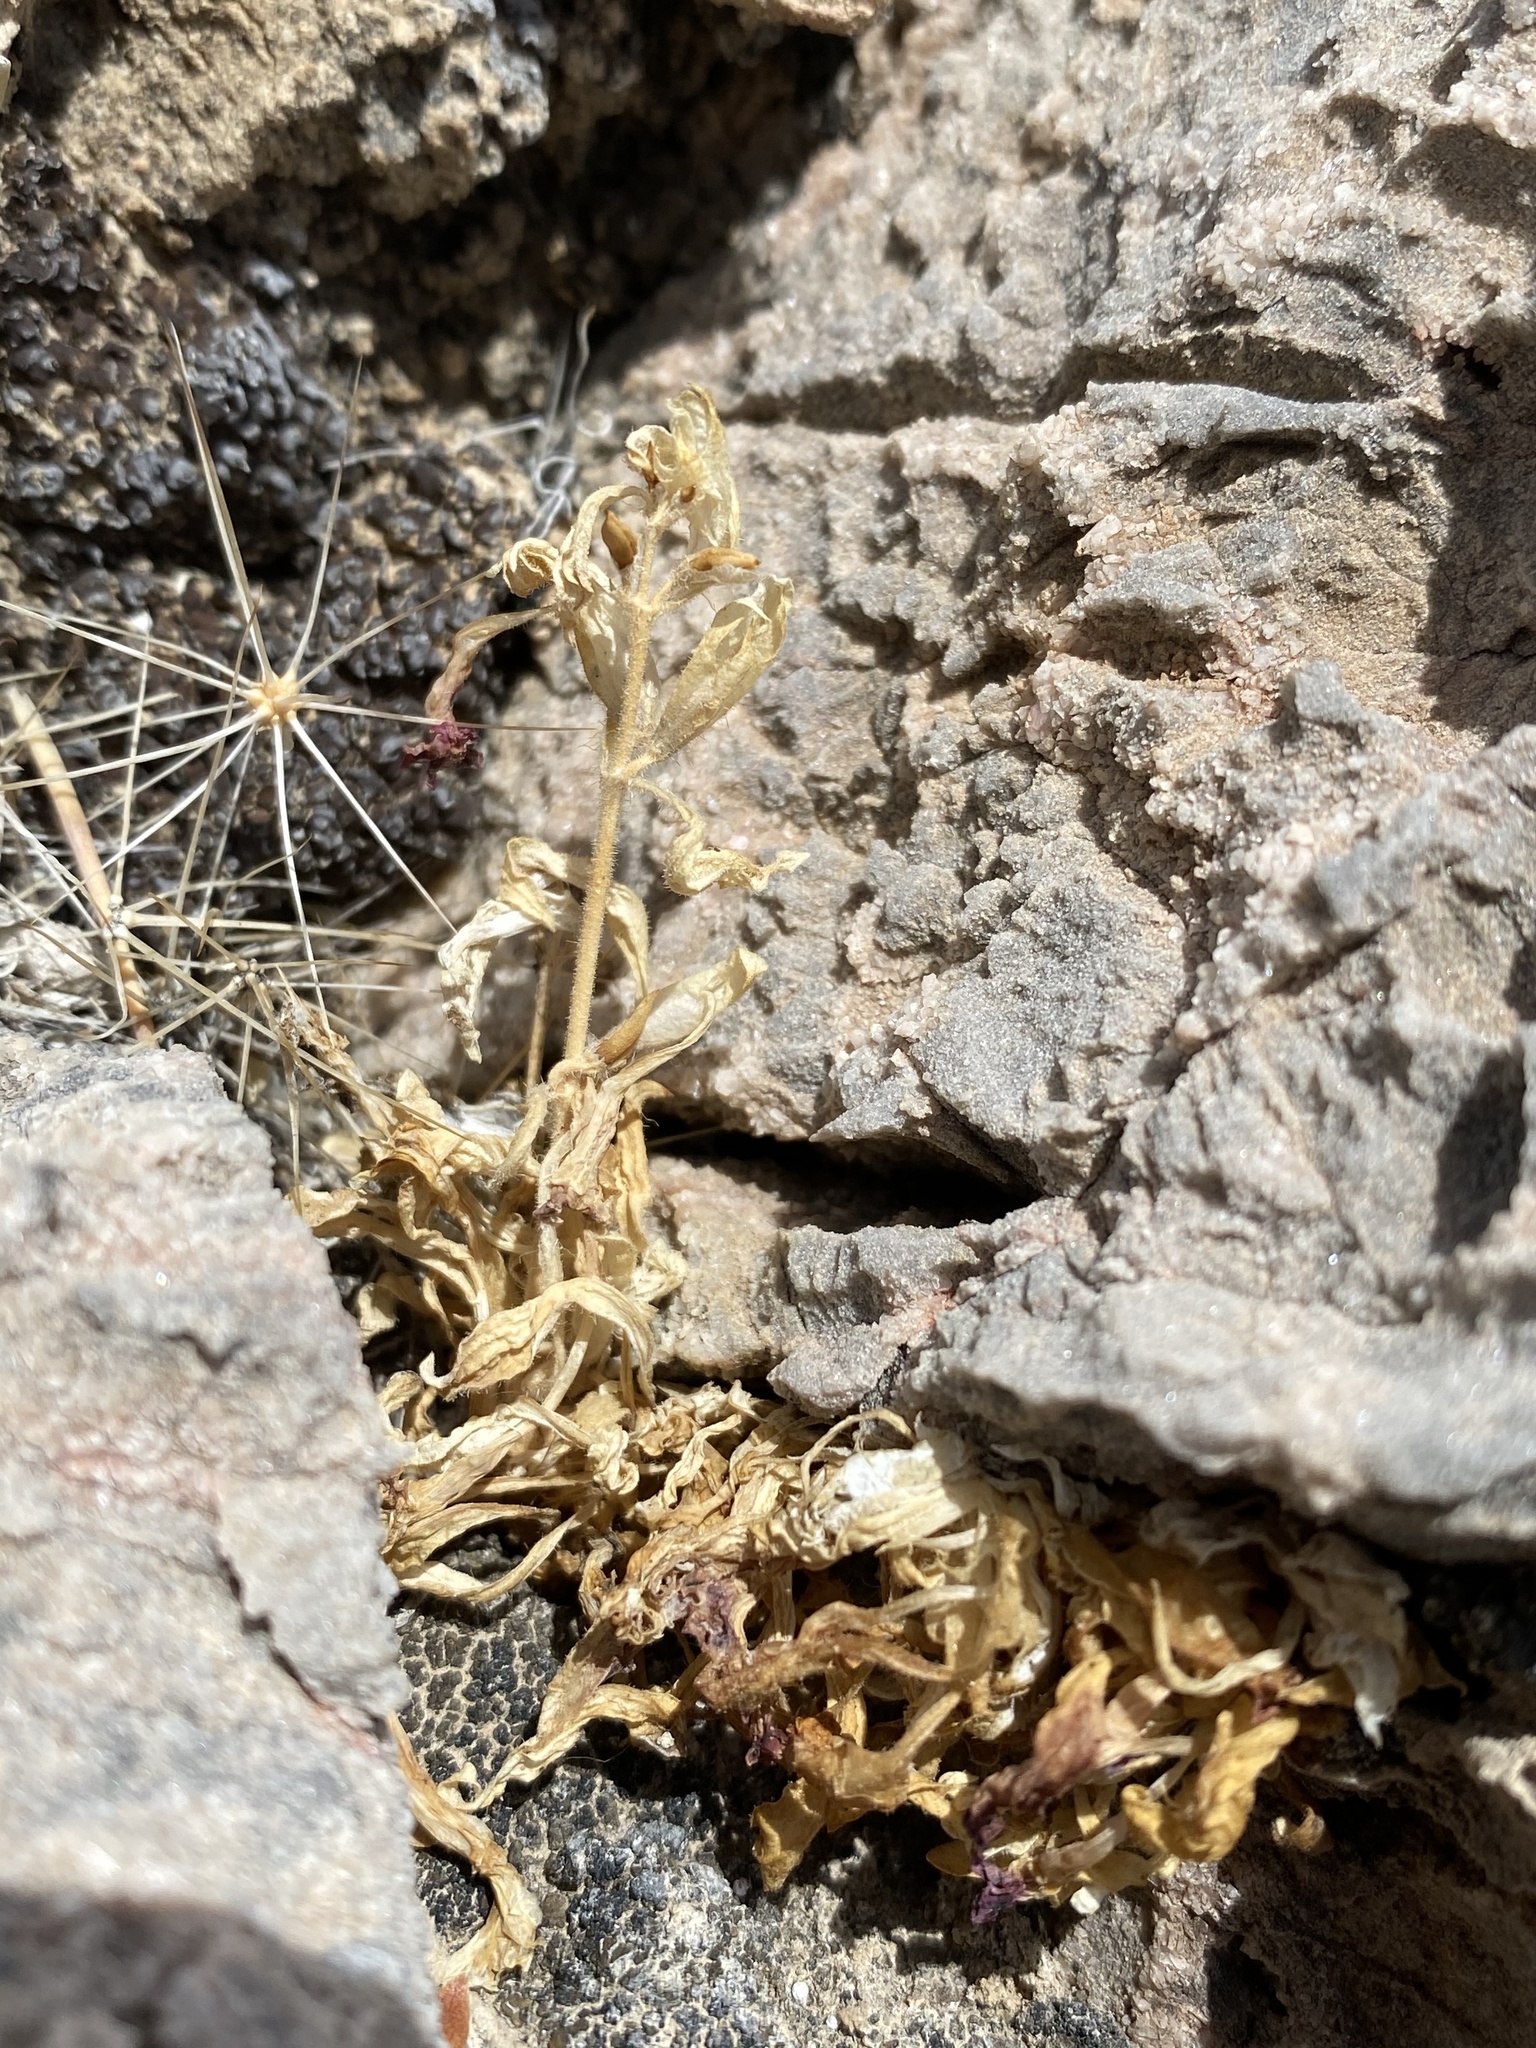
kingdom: Plantae
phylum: Tracheophyta
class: Magnoliopsida
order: Lamiales
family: Phrymaceae
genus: Diplacus
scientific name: Diplacus rupicola
